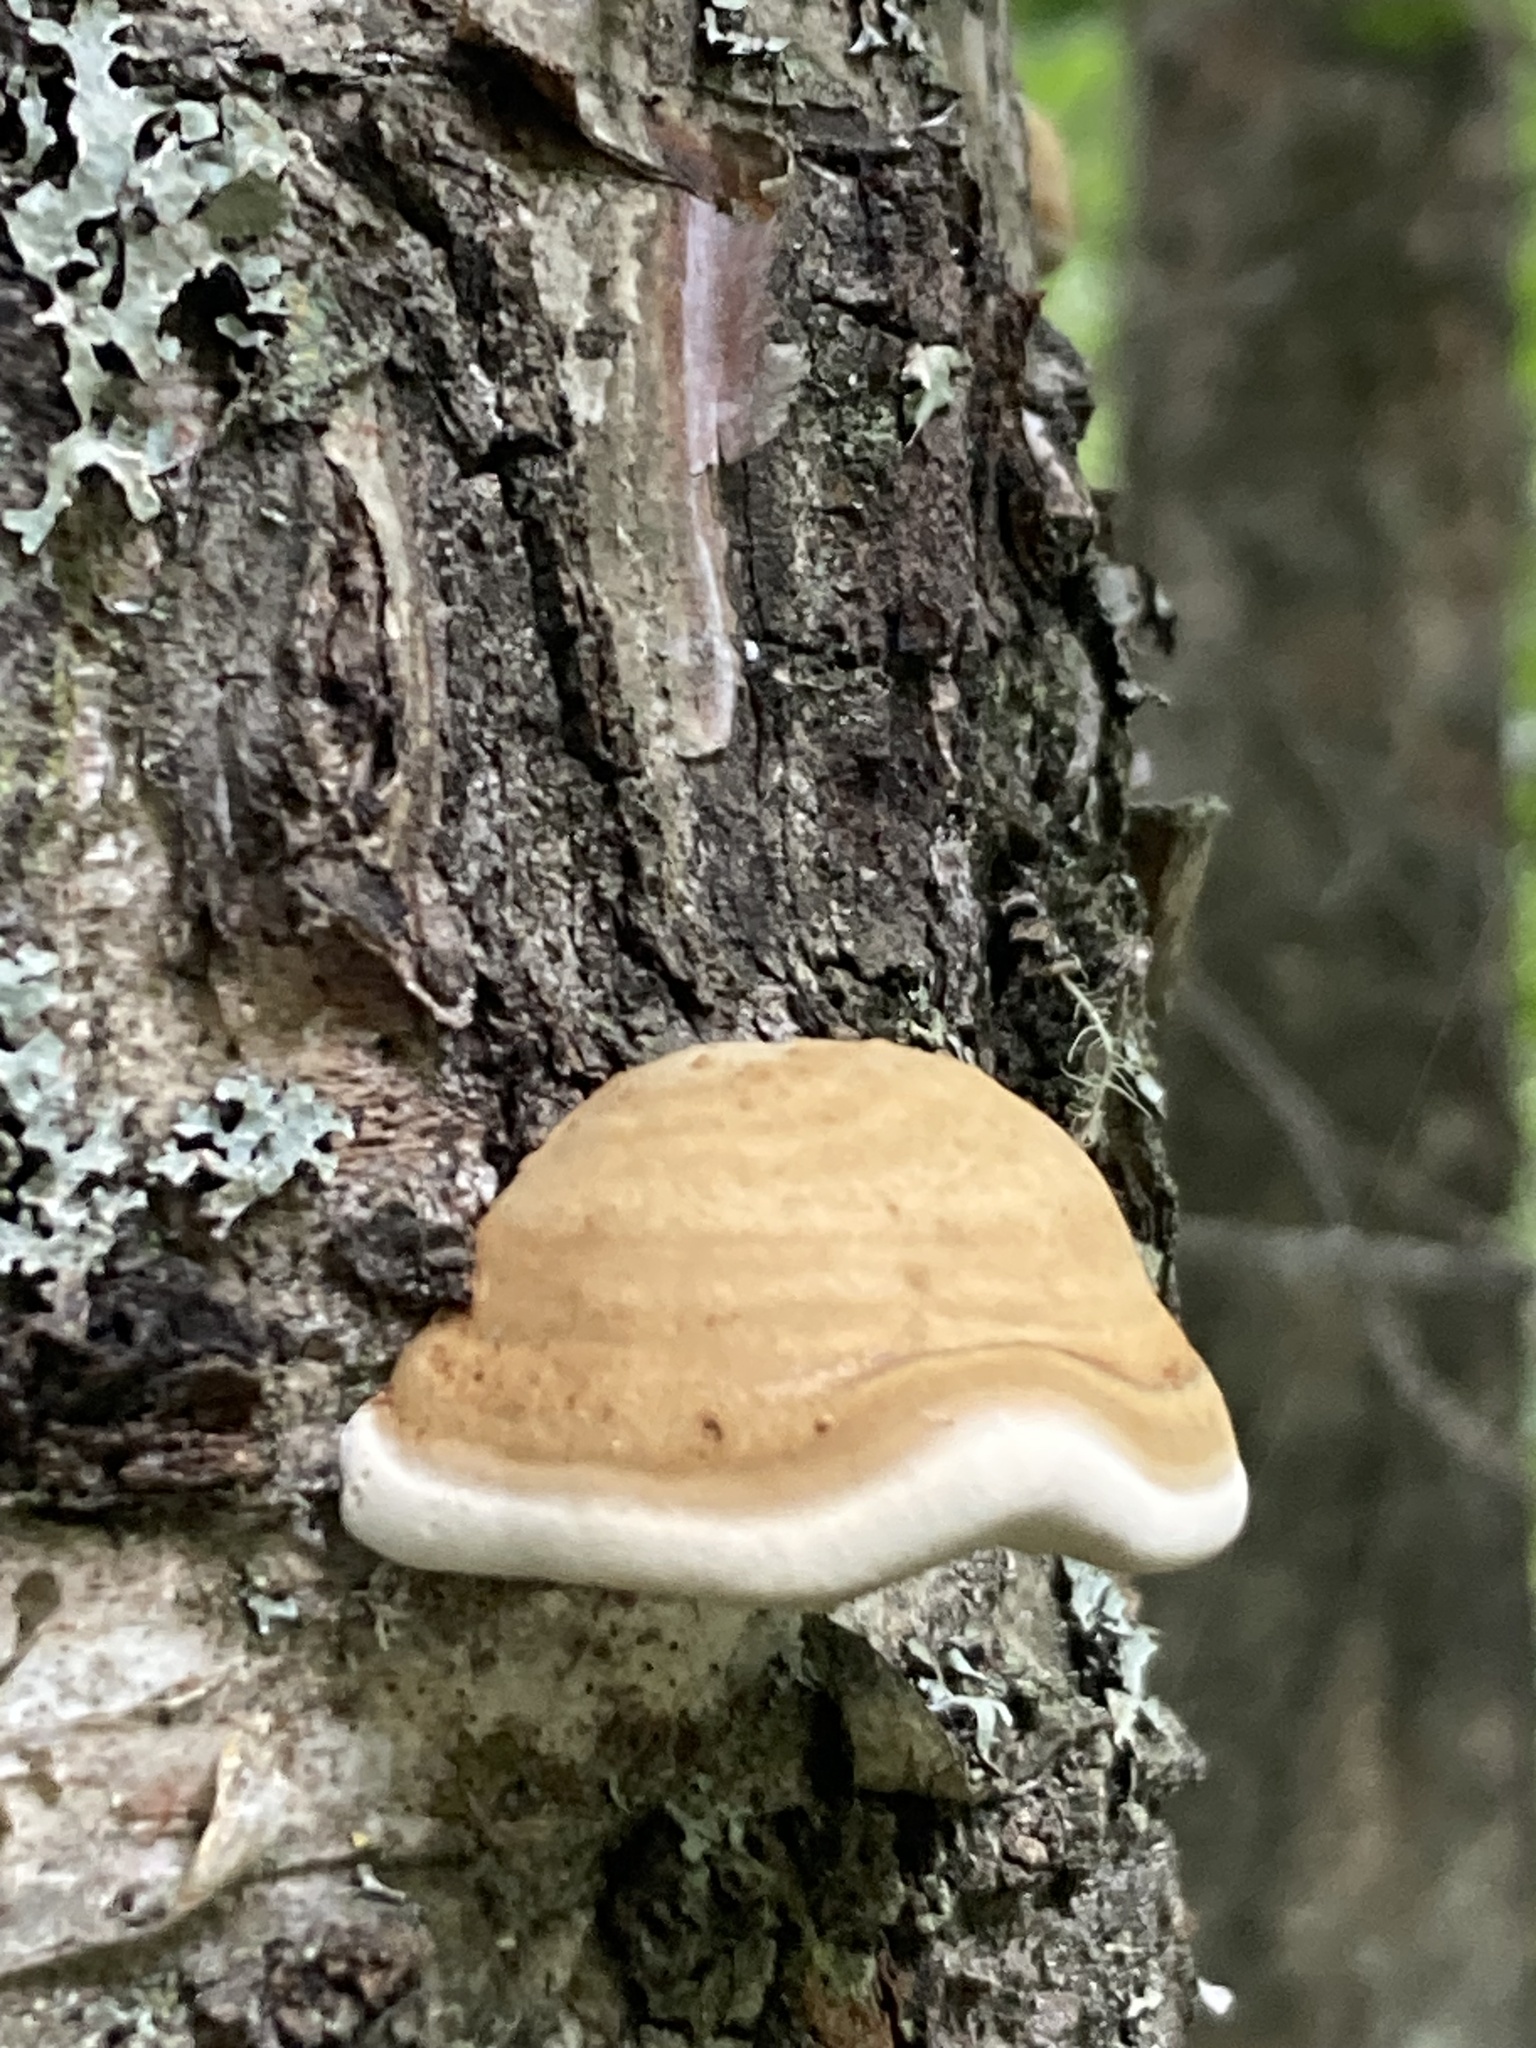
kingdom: Fungi
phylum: Basidiomycota
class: Agaricomycetes
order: Polyporales
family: Polyporaceae
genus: Fomes
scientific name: Fomes fomentarius
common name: Hoof fungus
